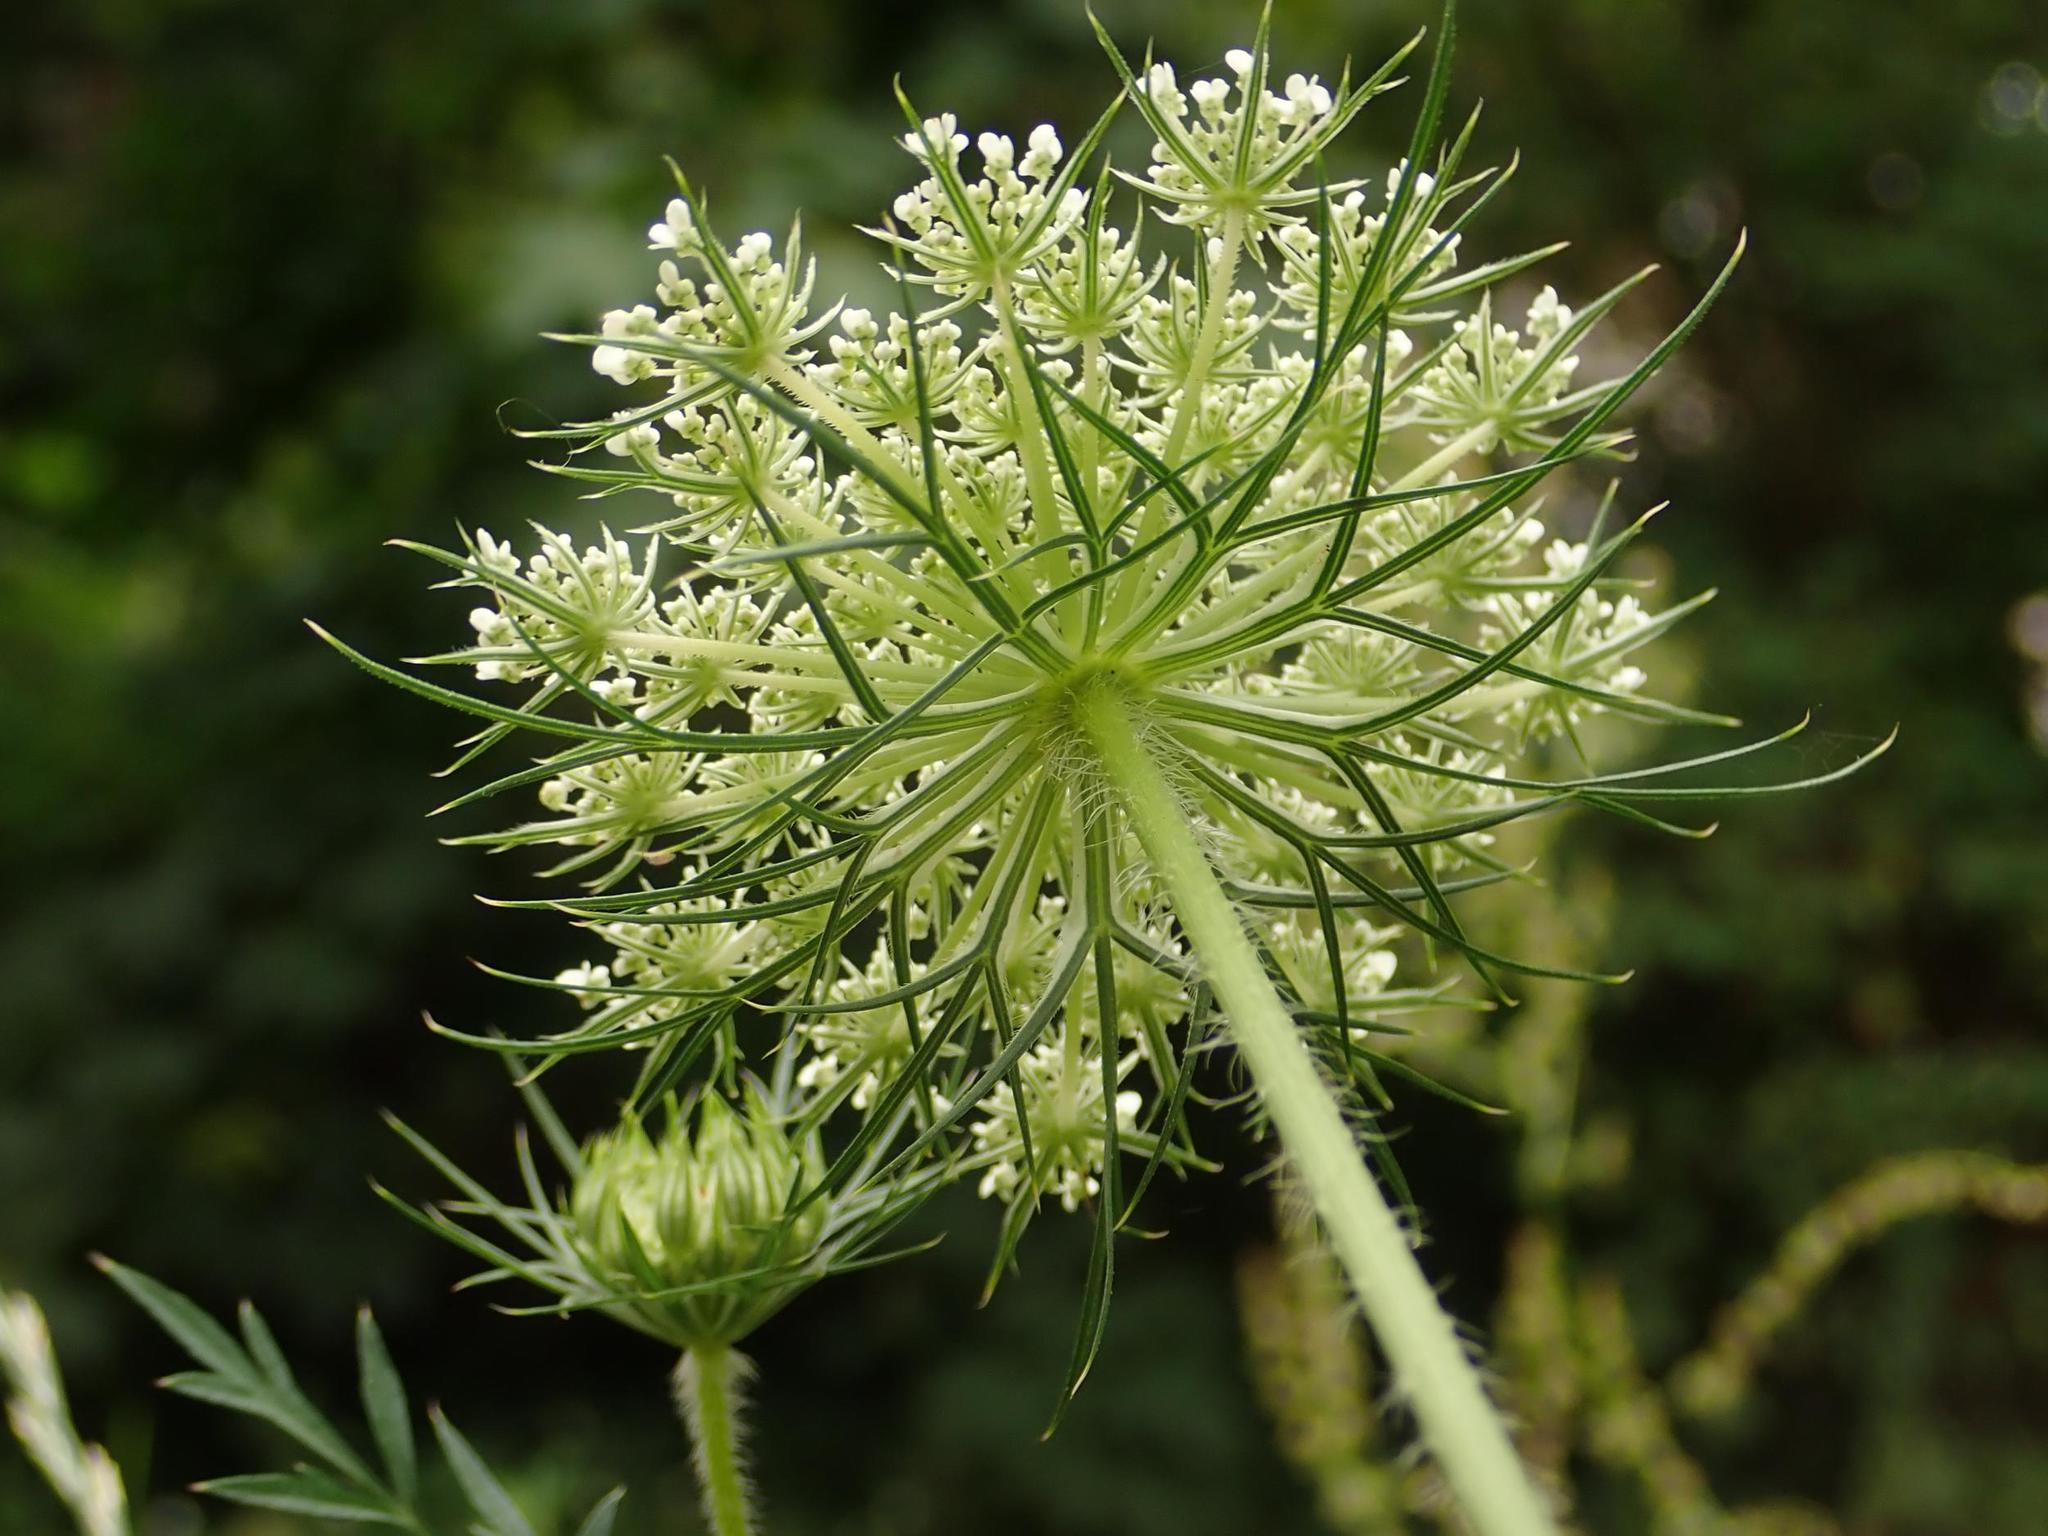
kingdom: Plantae
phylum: Tracheophyta
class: Magnoliopsida
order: Apiales
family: Apiaceae
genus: Daucus
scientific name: Daucus carota
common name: Wild carrot
